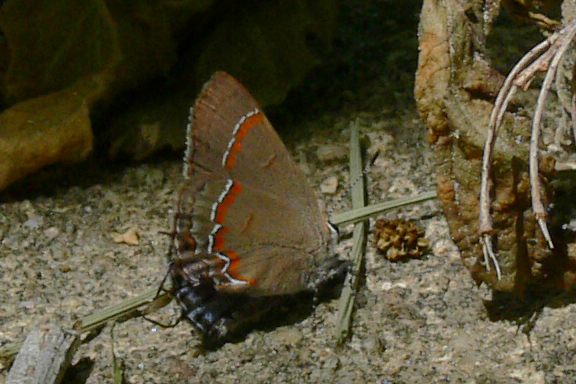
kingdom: Animalia
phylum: Arthropoda
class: Insecta
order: Lepidoptera
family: Lycaenidae
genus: Calycopis
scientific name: Calycopis cecrops
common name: Red-banded hairstreak
